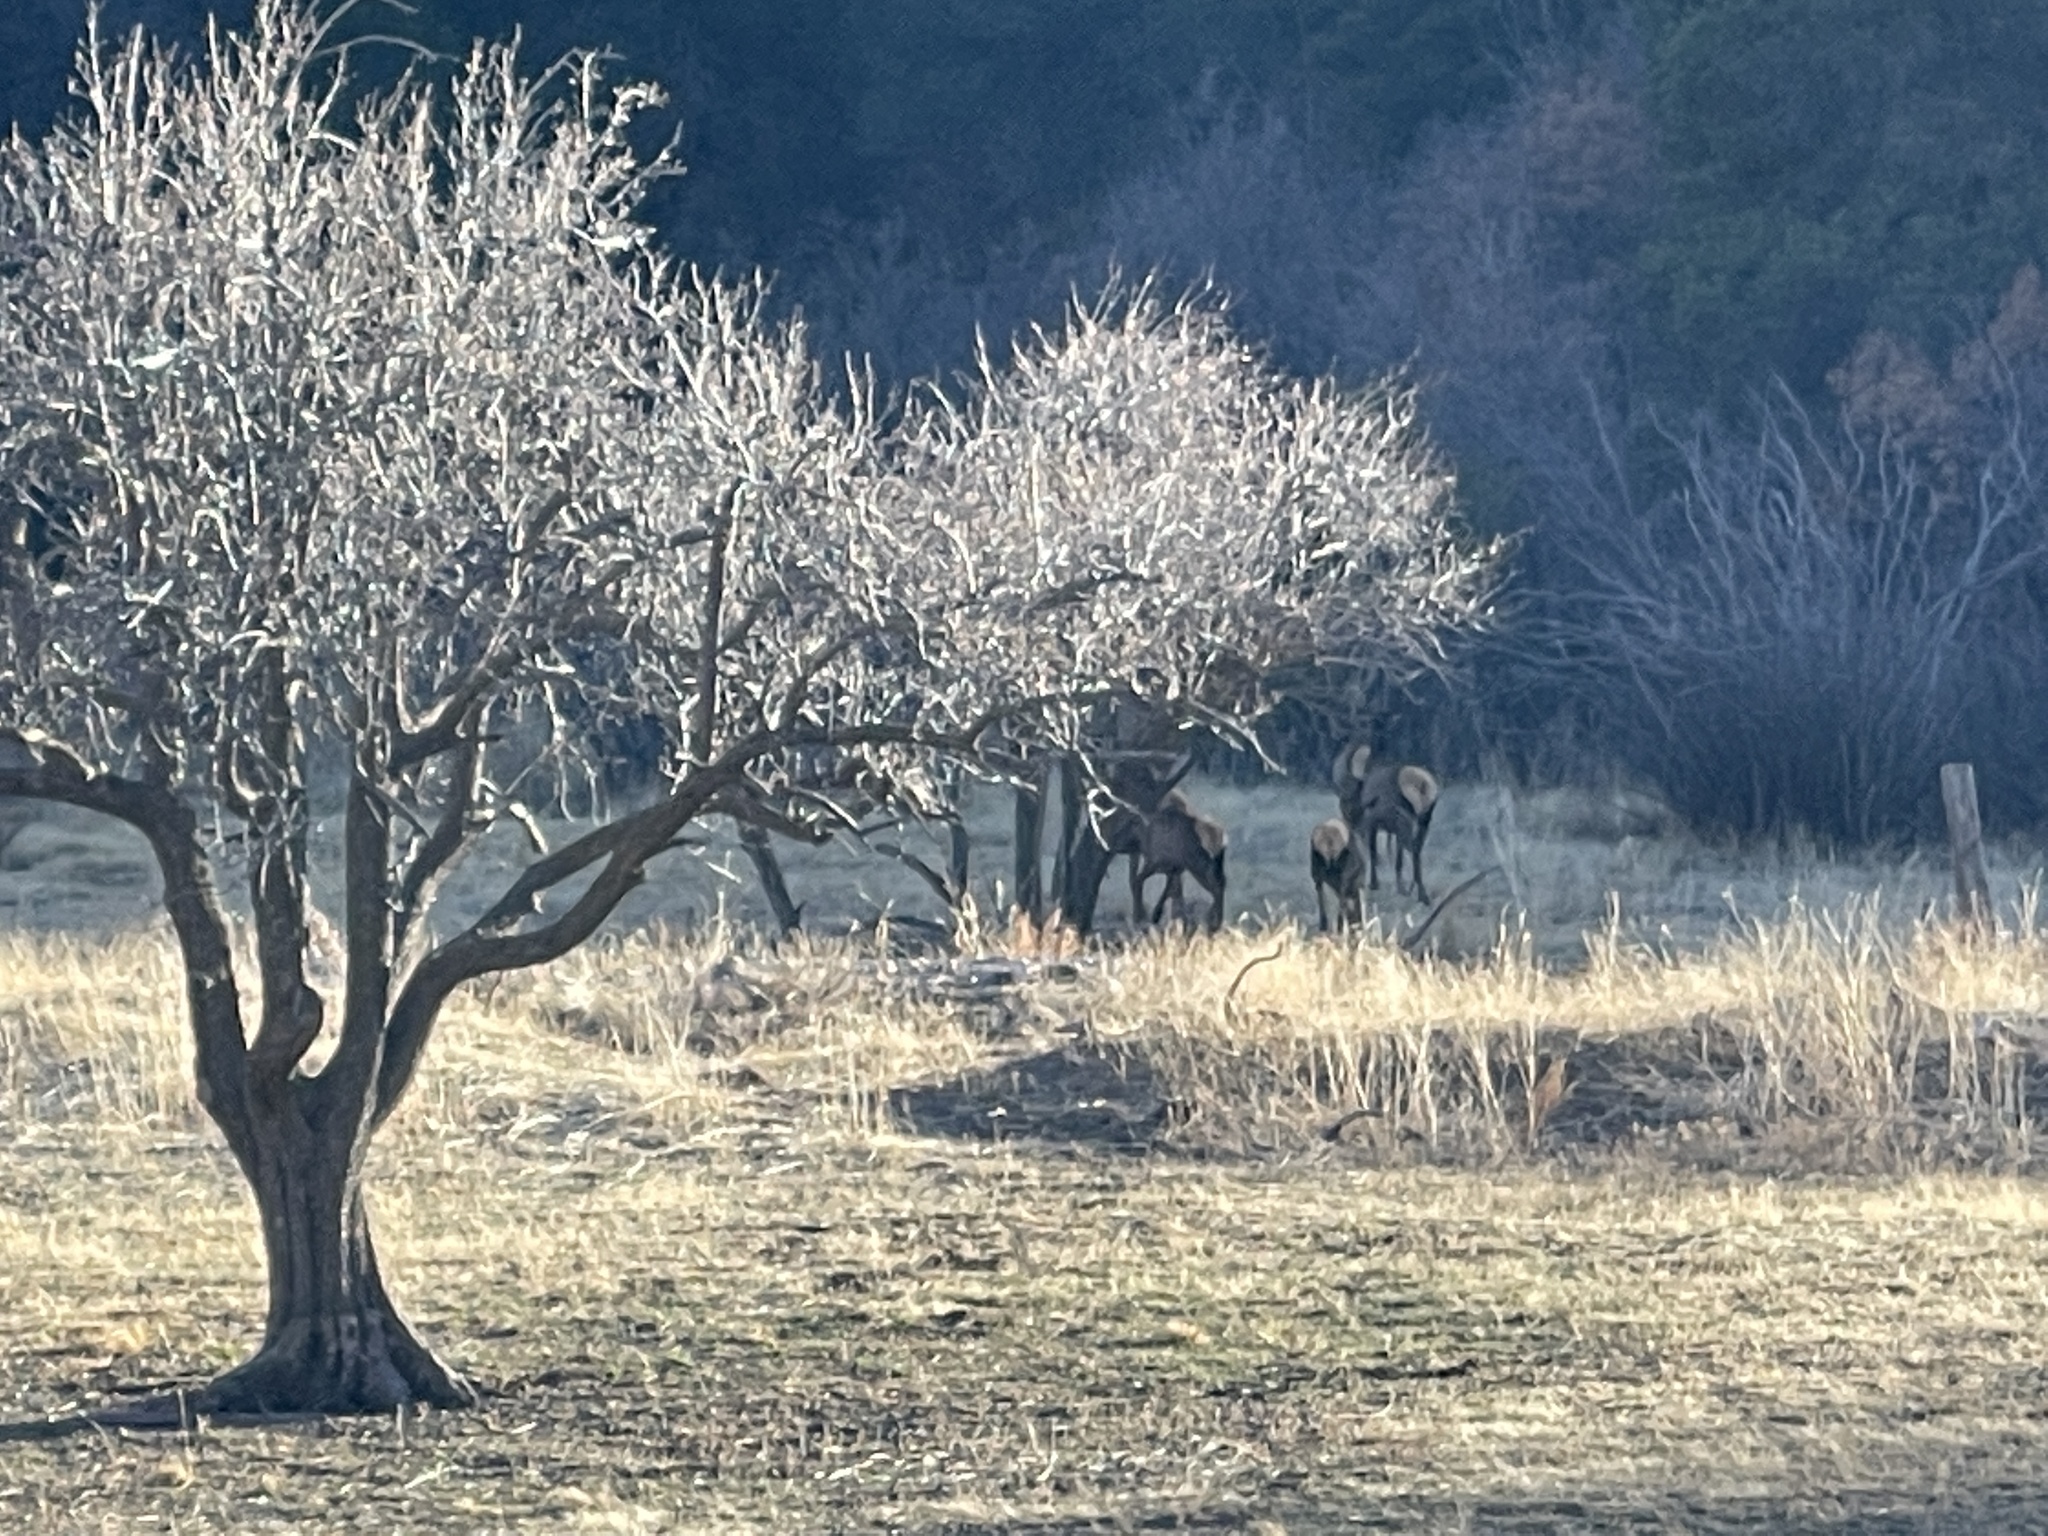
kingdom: Animalia
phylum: Chordata
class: Mammalia
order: Artiodactyla
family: Cervidae
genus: Cervus
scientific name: Cervus elaphus
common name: Red deer
